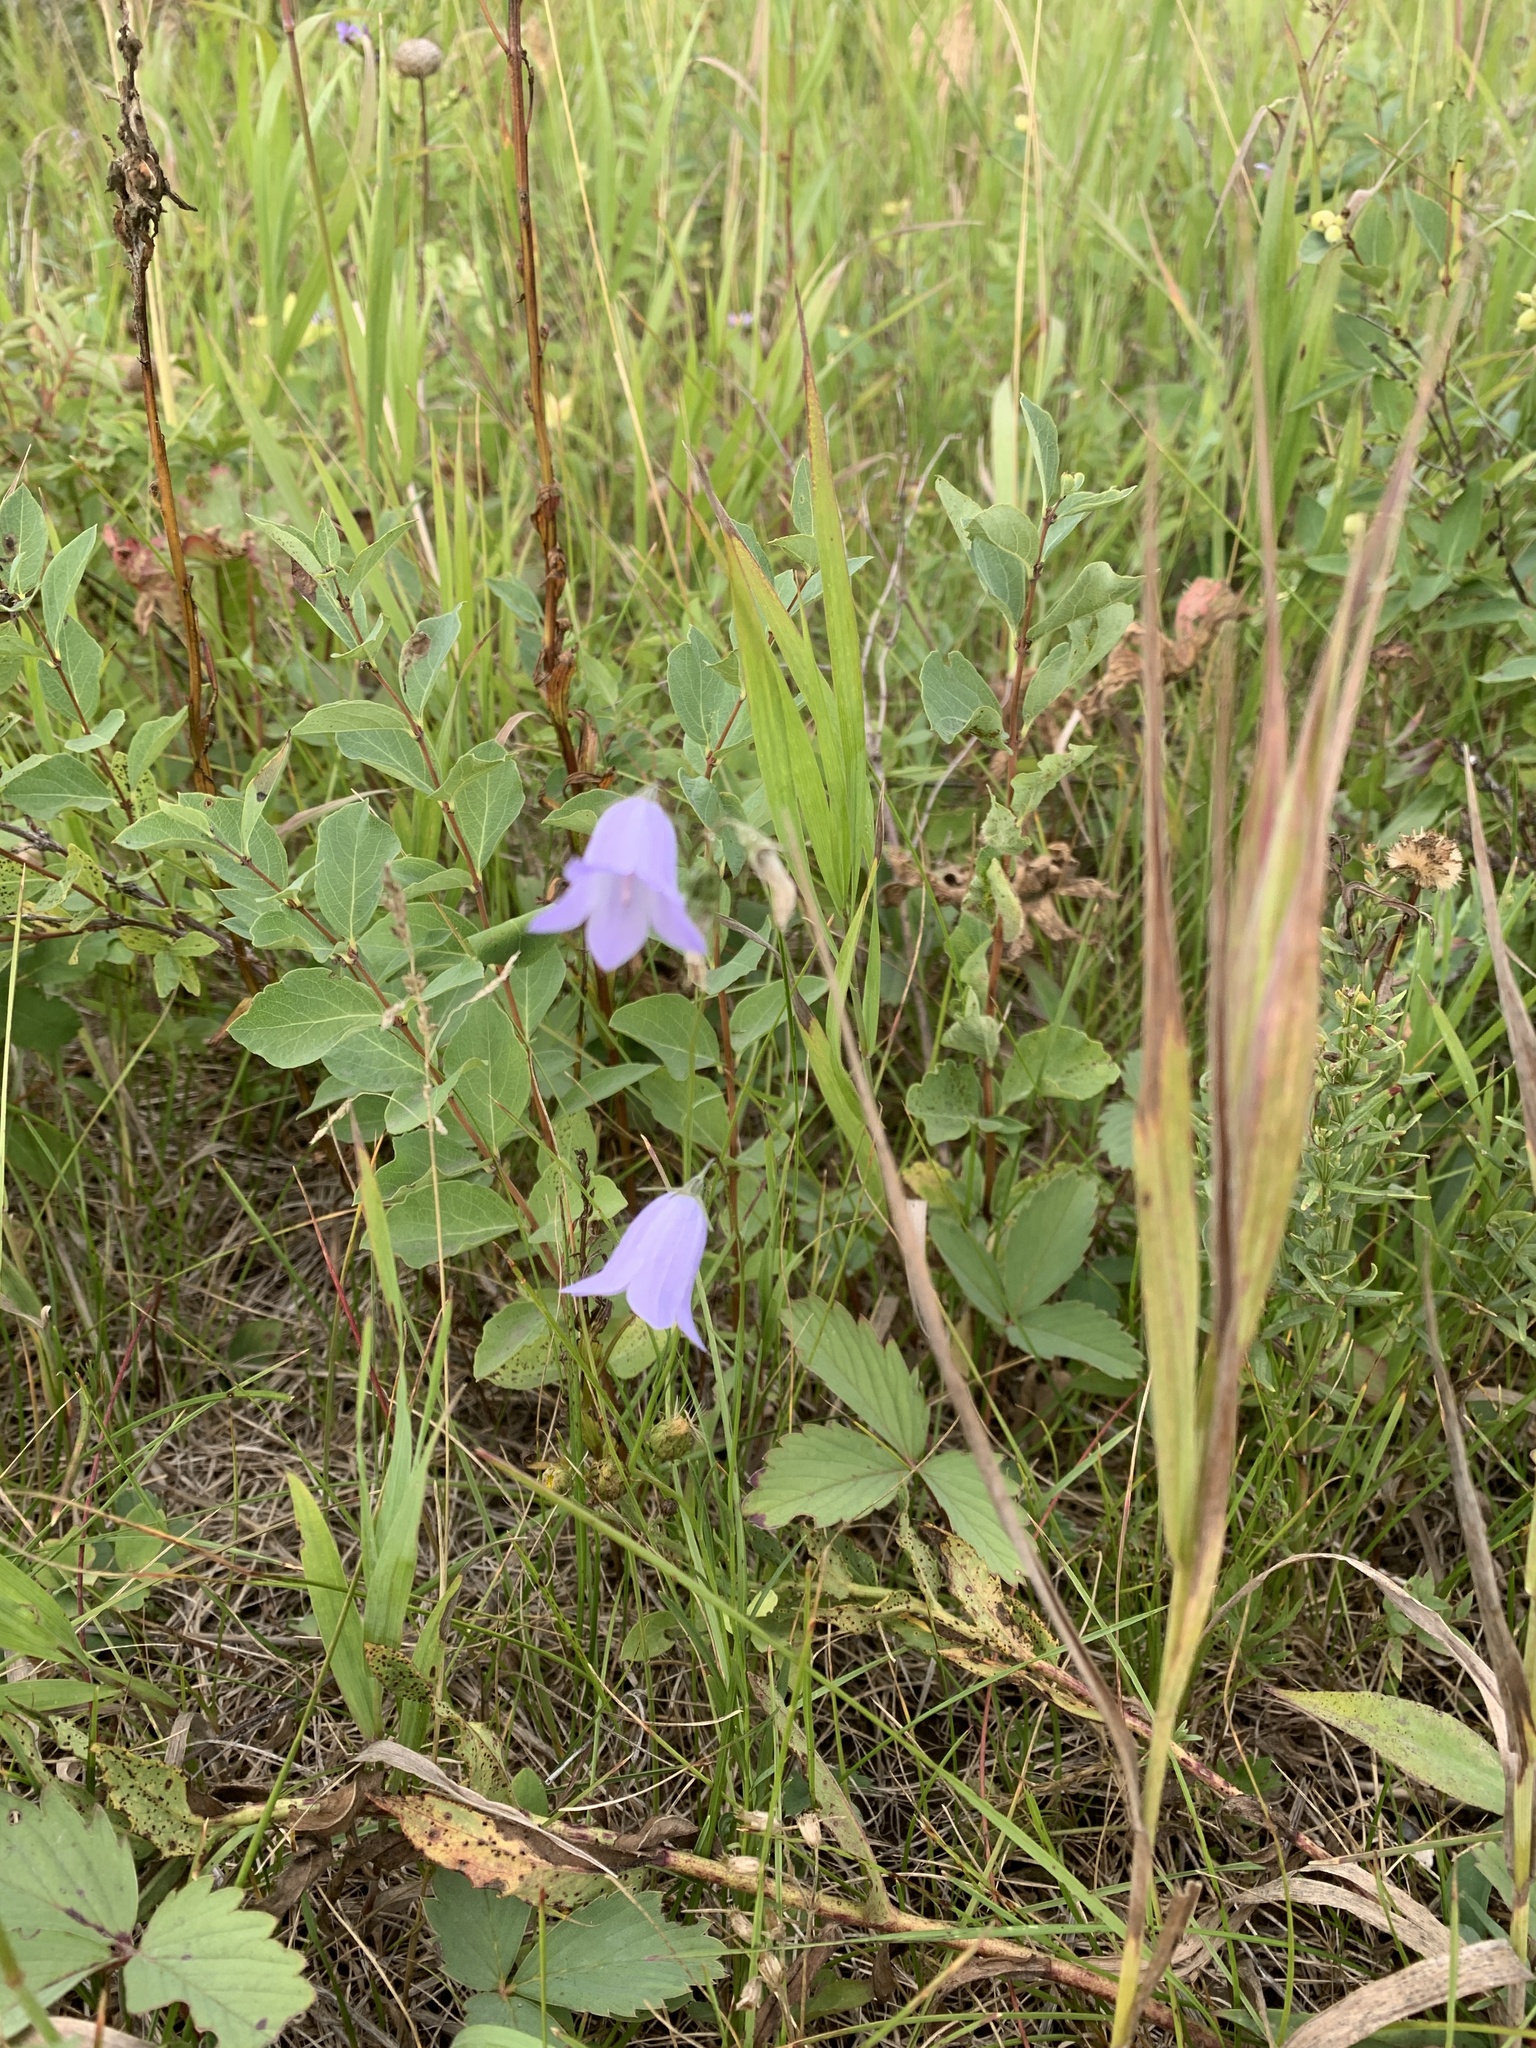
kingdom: Plantae
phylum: Tracheophyta
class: Magnoliopsida
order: Asterales
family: Campanulaceae
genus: Campanula
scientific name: Campanula alaskana
